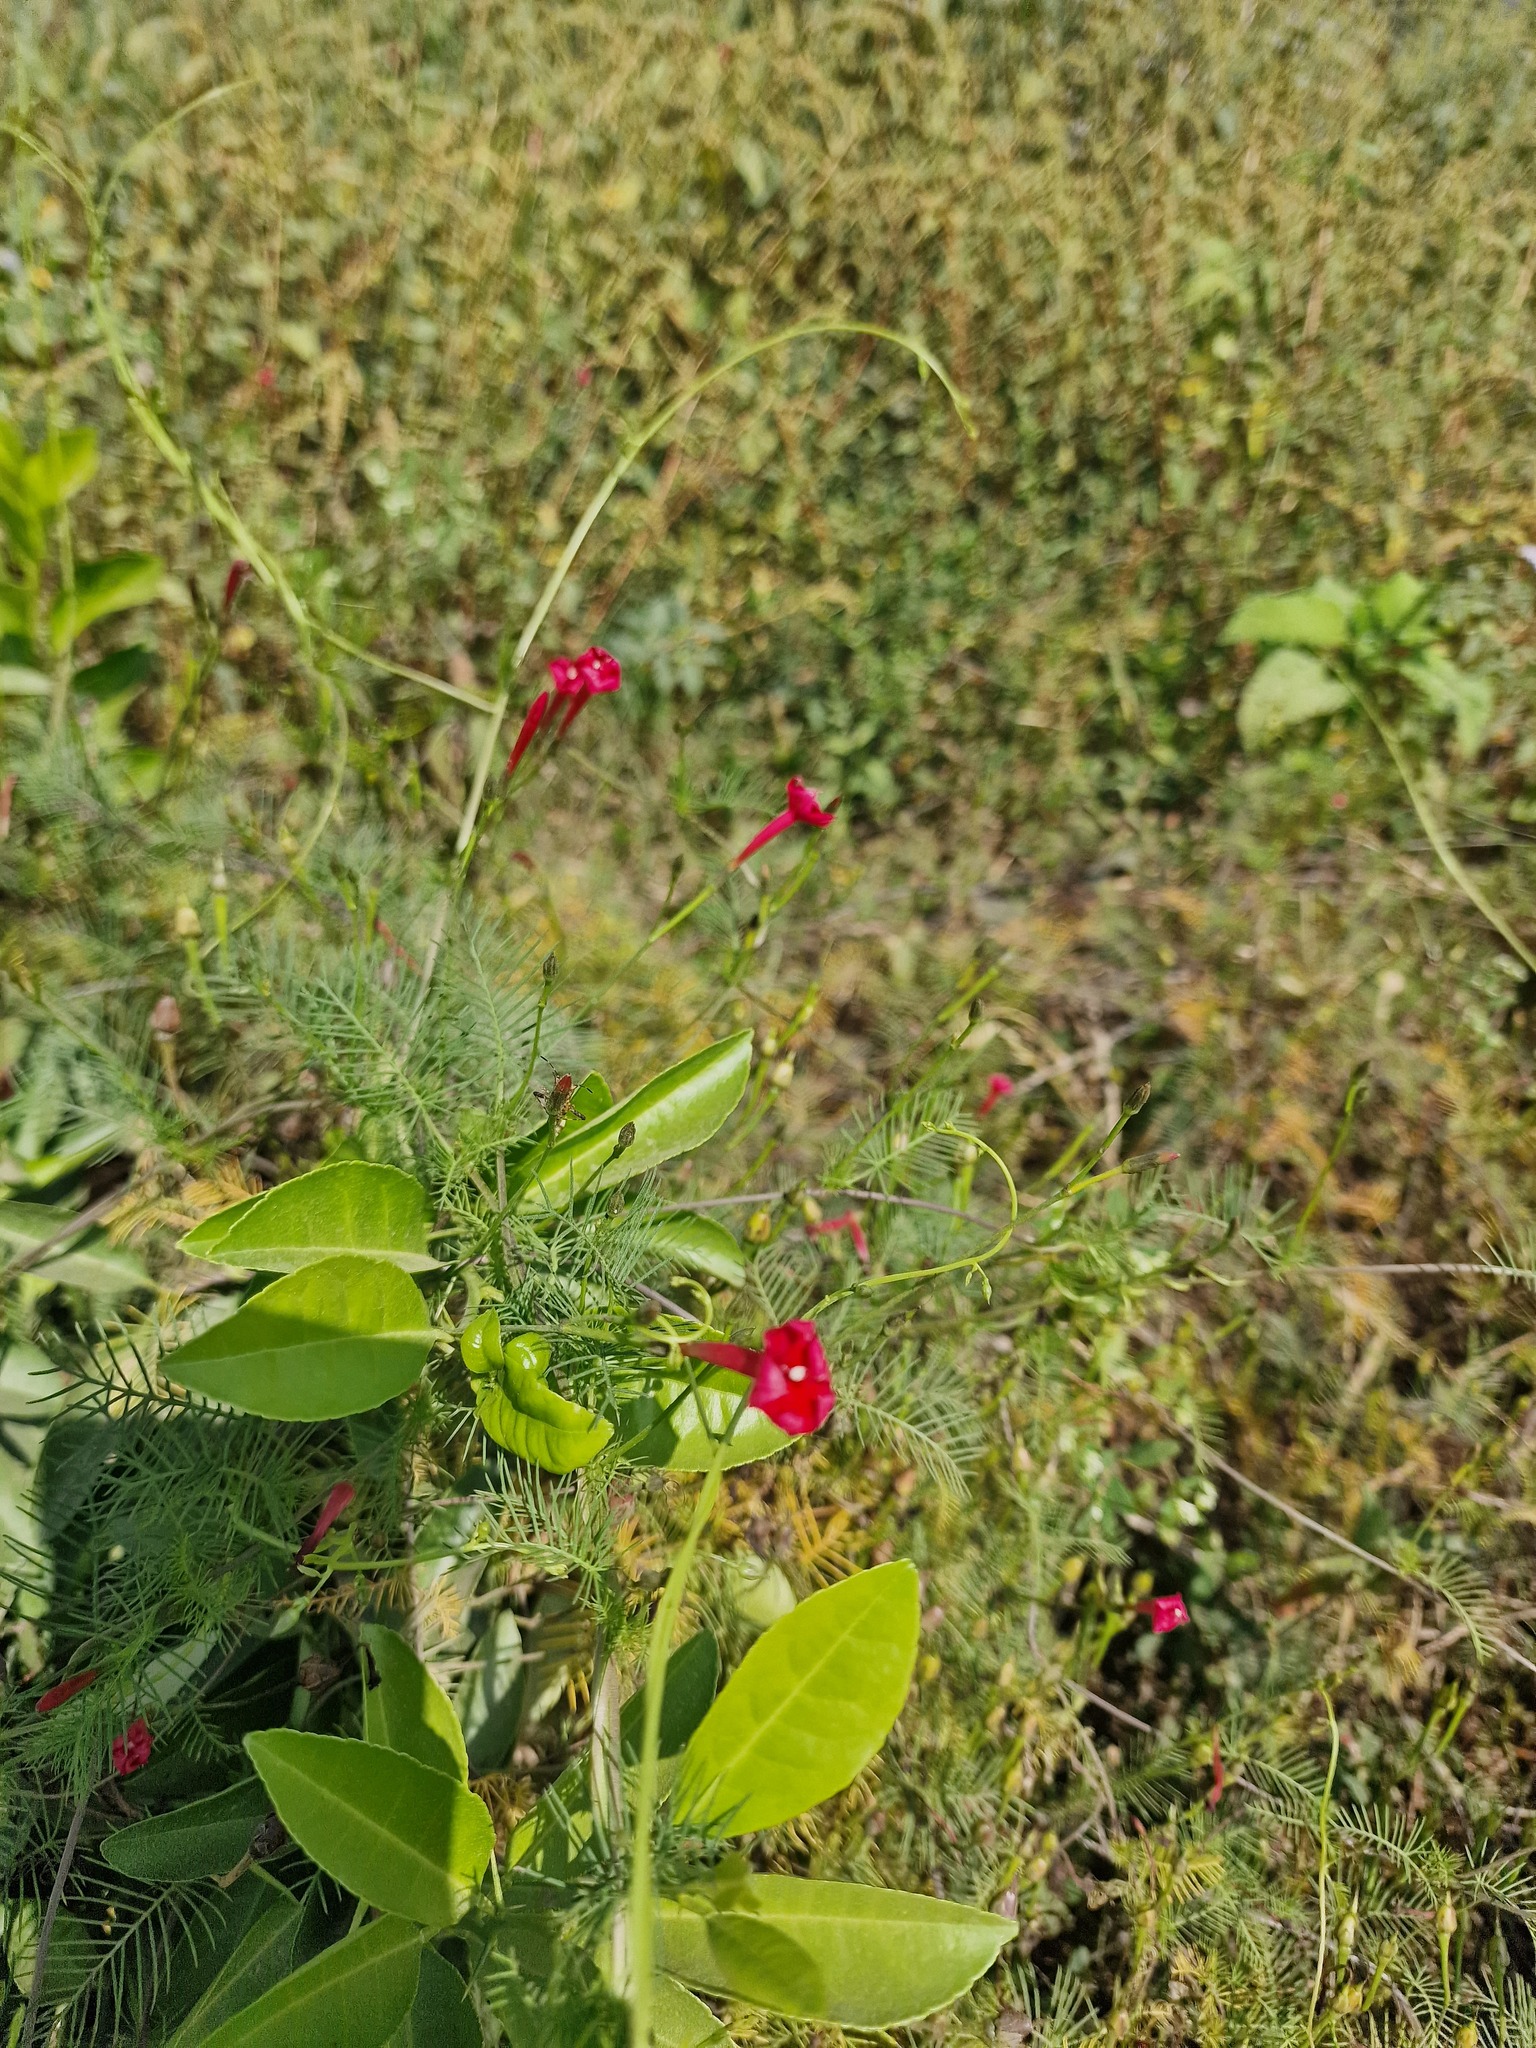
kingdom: Plantae
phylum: Tracheophyta
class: Magnoliopsida
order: Solanales
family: Convolvulaceae
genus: Ipomoea
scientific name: Ipomoea quamoclit
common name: Cypress vine
